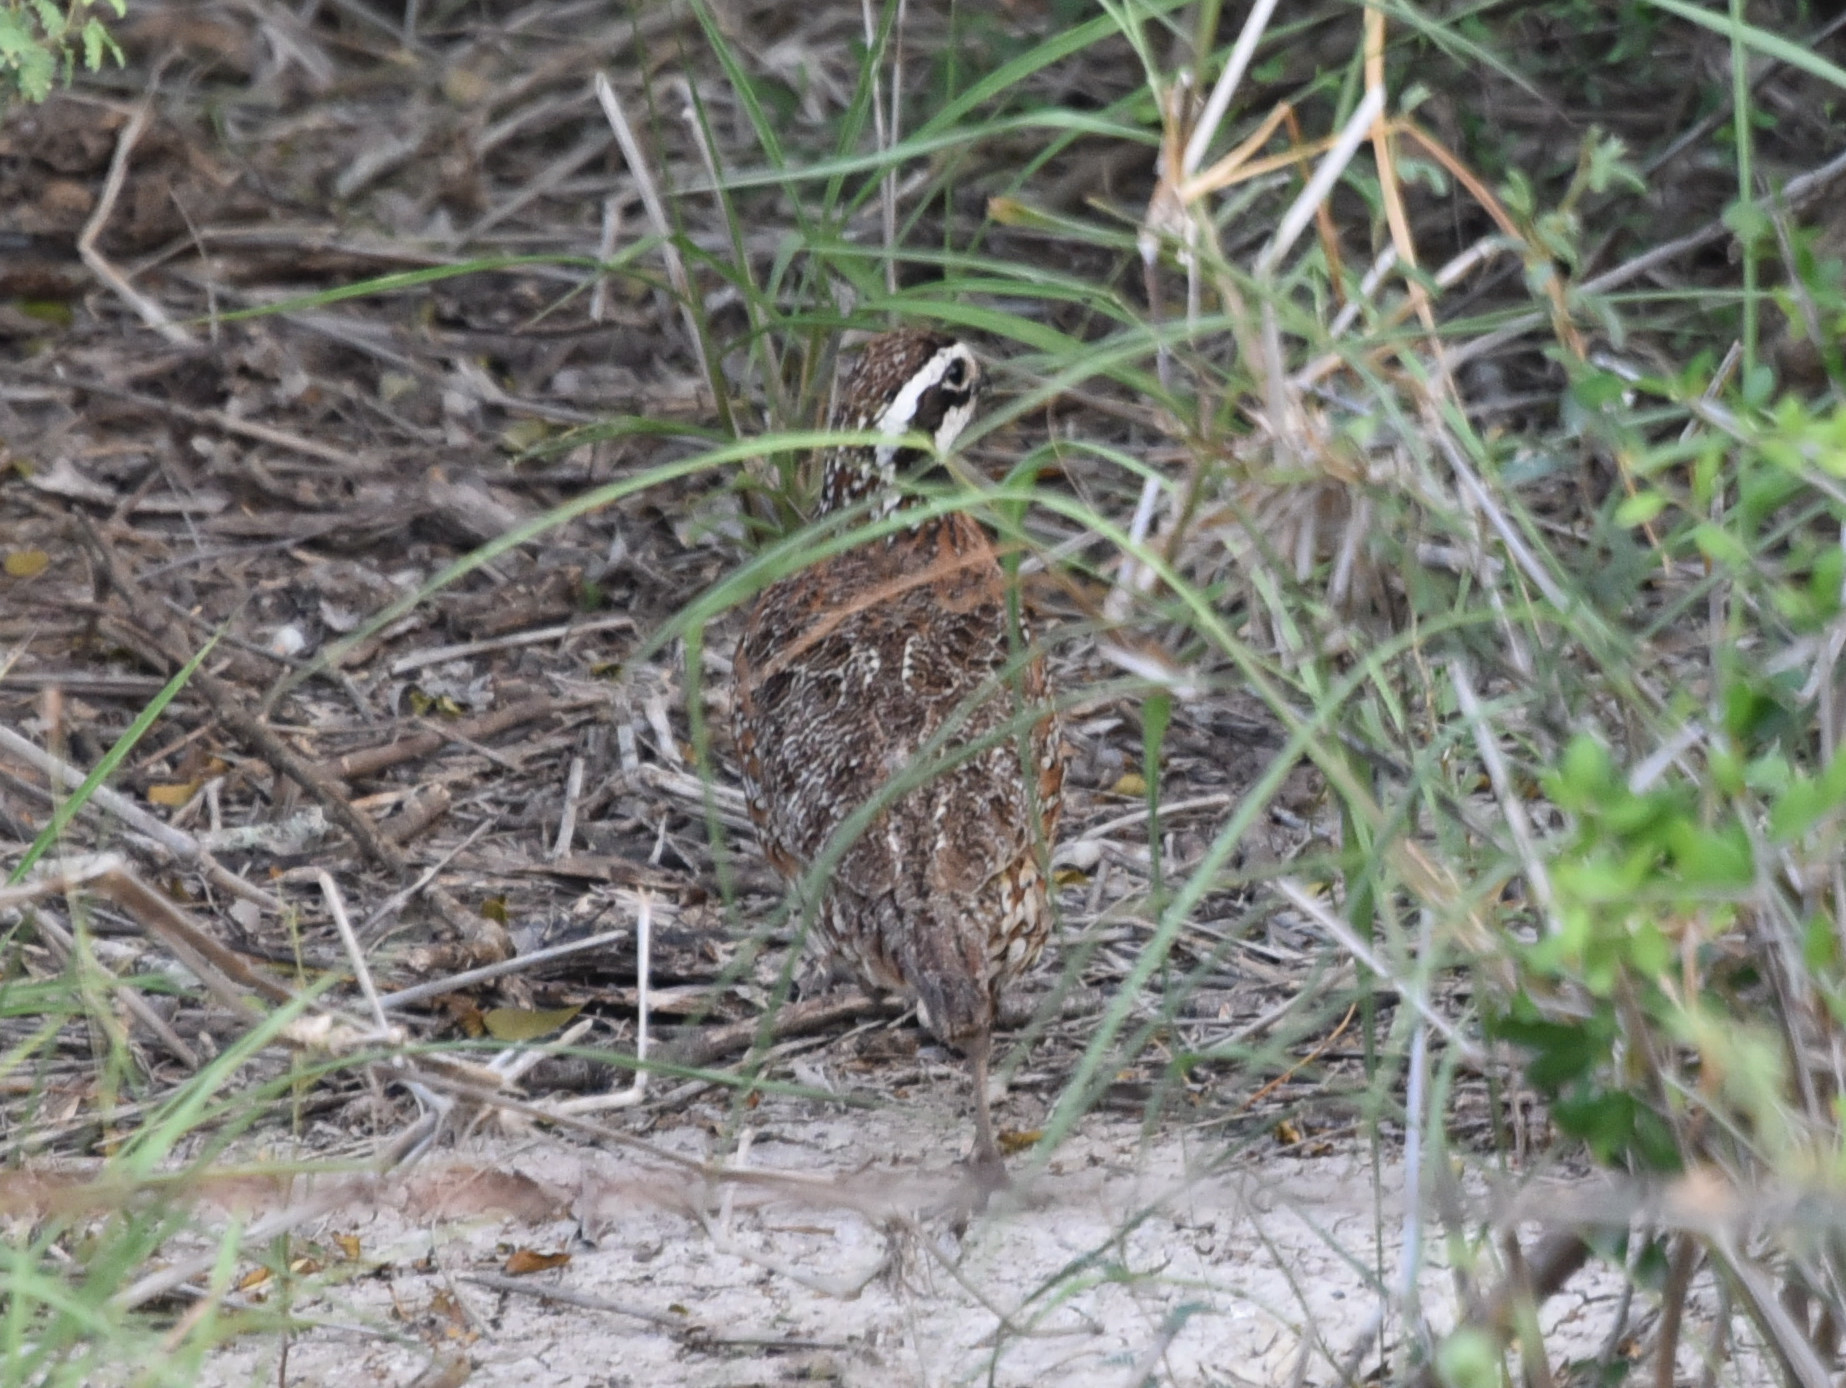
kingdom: Animalia
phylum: Chordata
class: Aves
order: Galliformes
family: Odontophoridae
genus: Colinus
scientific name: Colinus virginianus
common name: Northern bobwhite
